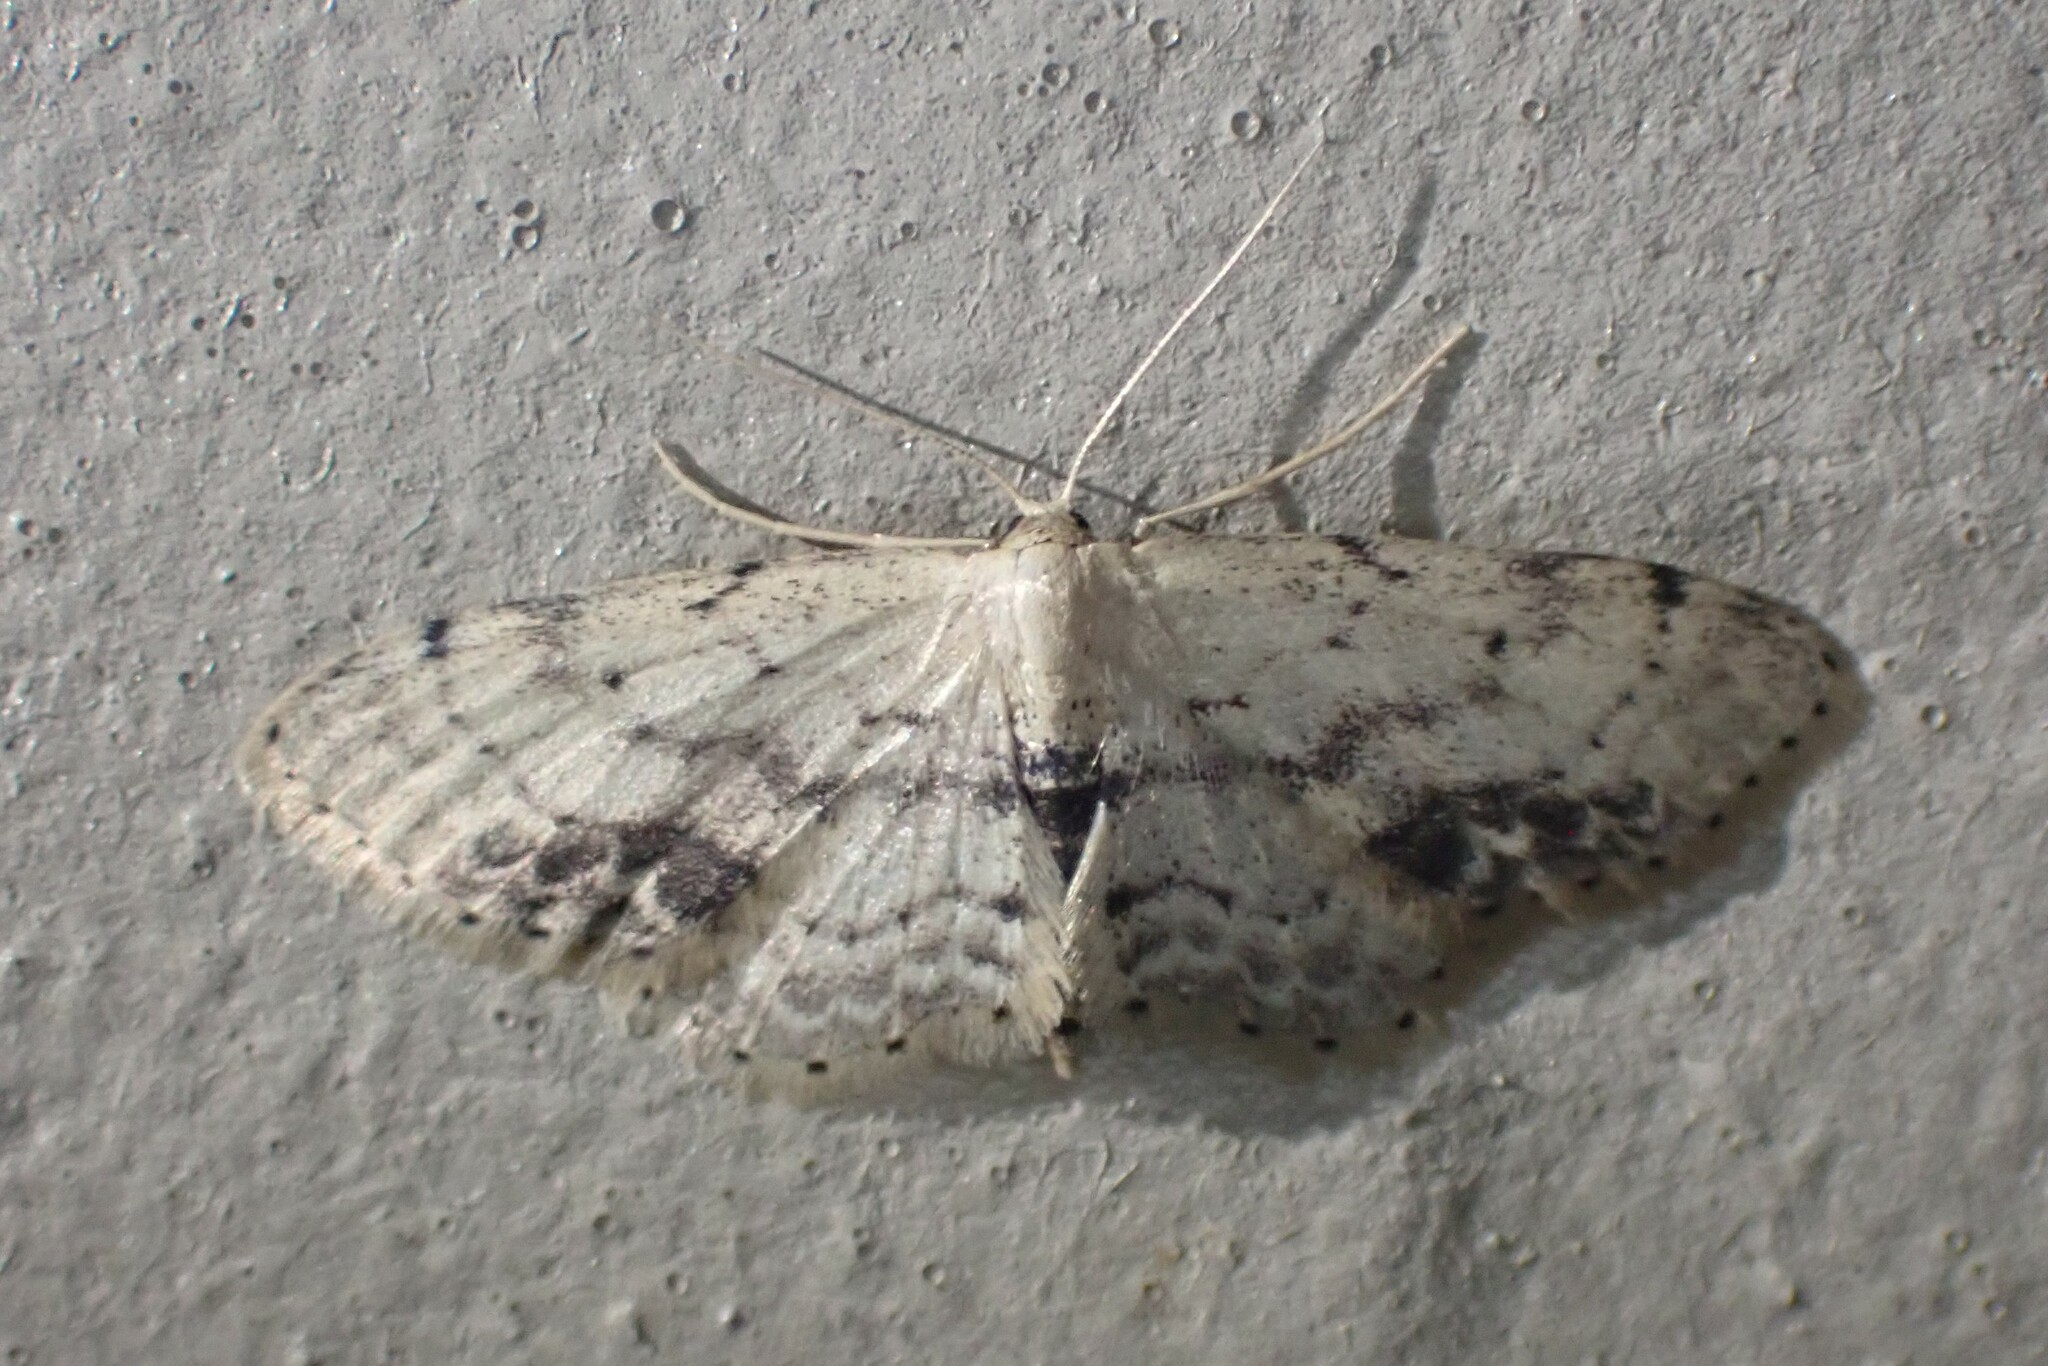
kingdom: Animalia
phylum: Arthropoda
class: Insecta
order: Lepidoptera
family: Geometridae
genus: Idaea
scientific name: Idaea dimidiata
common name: Single-dotted wave
